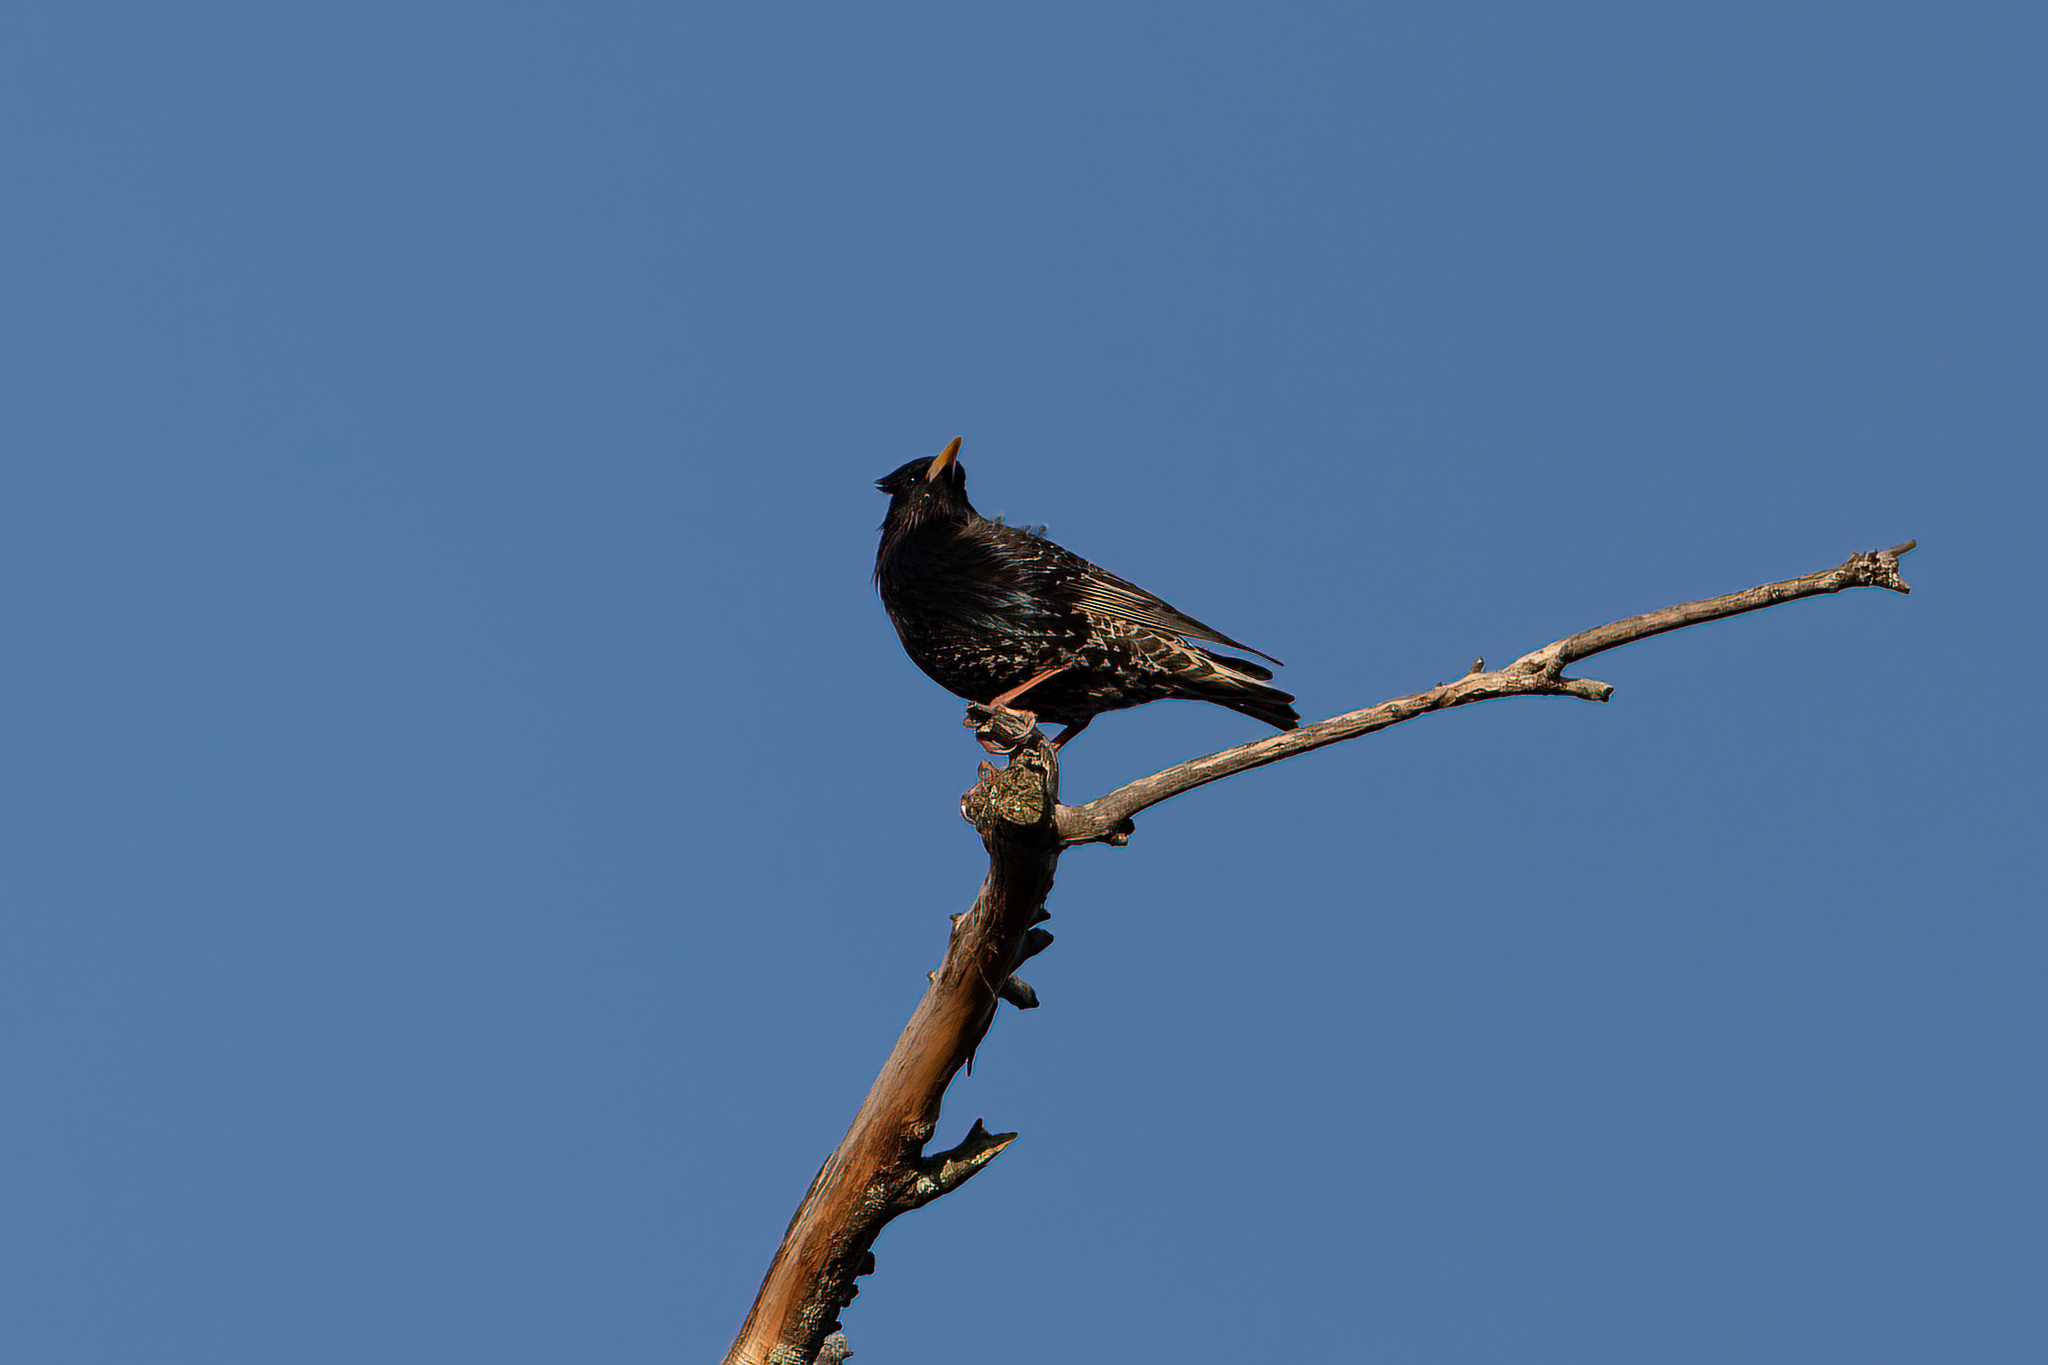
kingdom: Animalia
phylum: Chordata
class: Aves
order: Passeriformes
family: Sturnidae
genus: Sturnus
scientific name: Sturnus vulgaris
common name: Common starling
